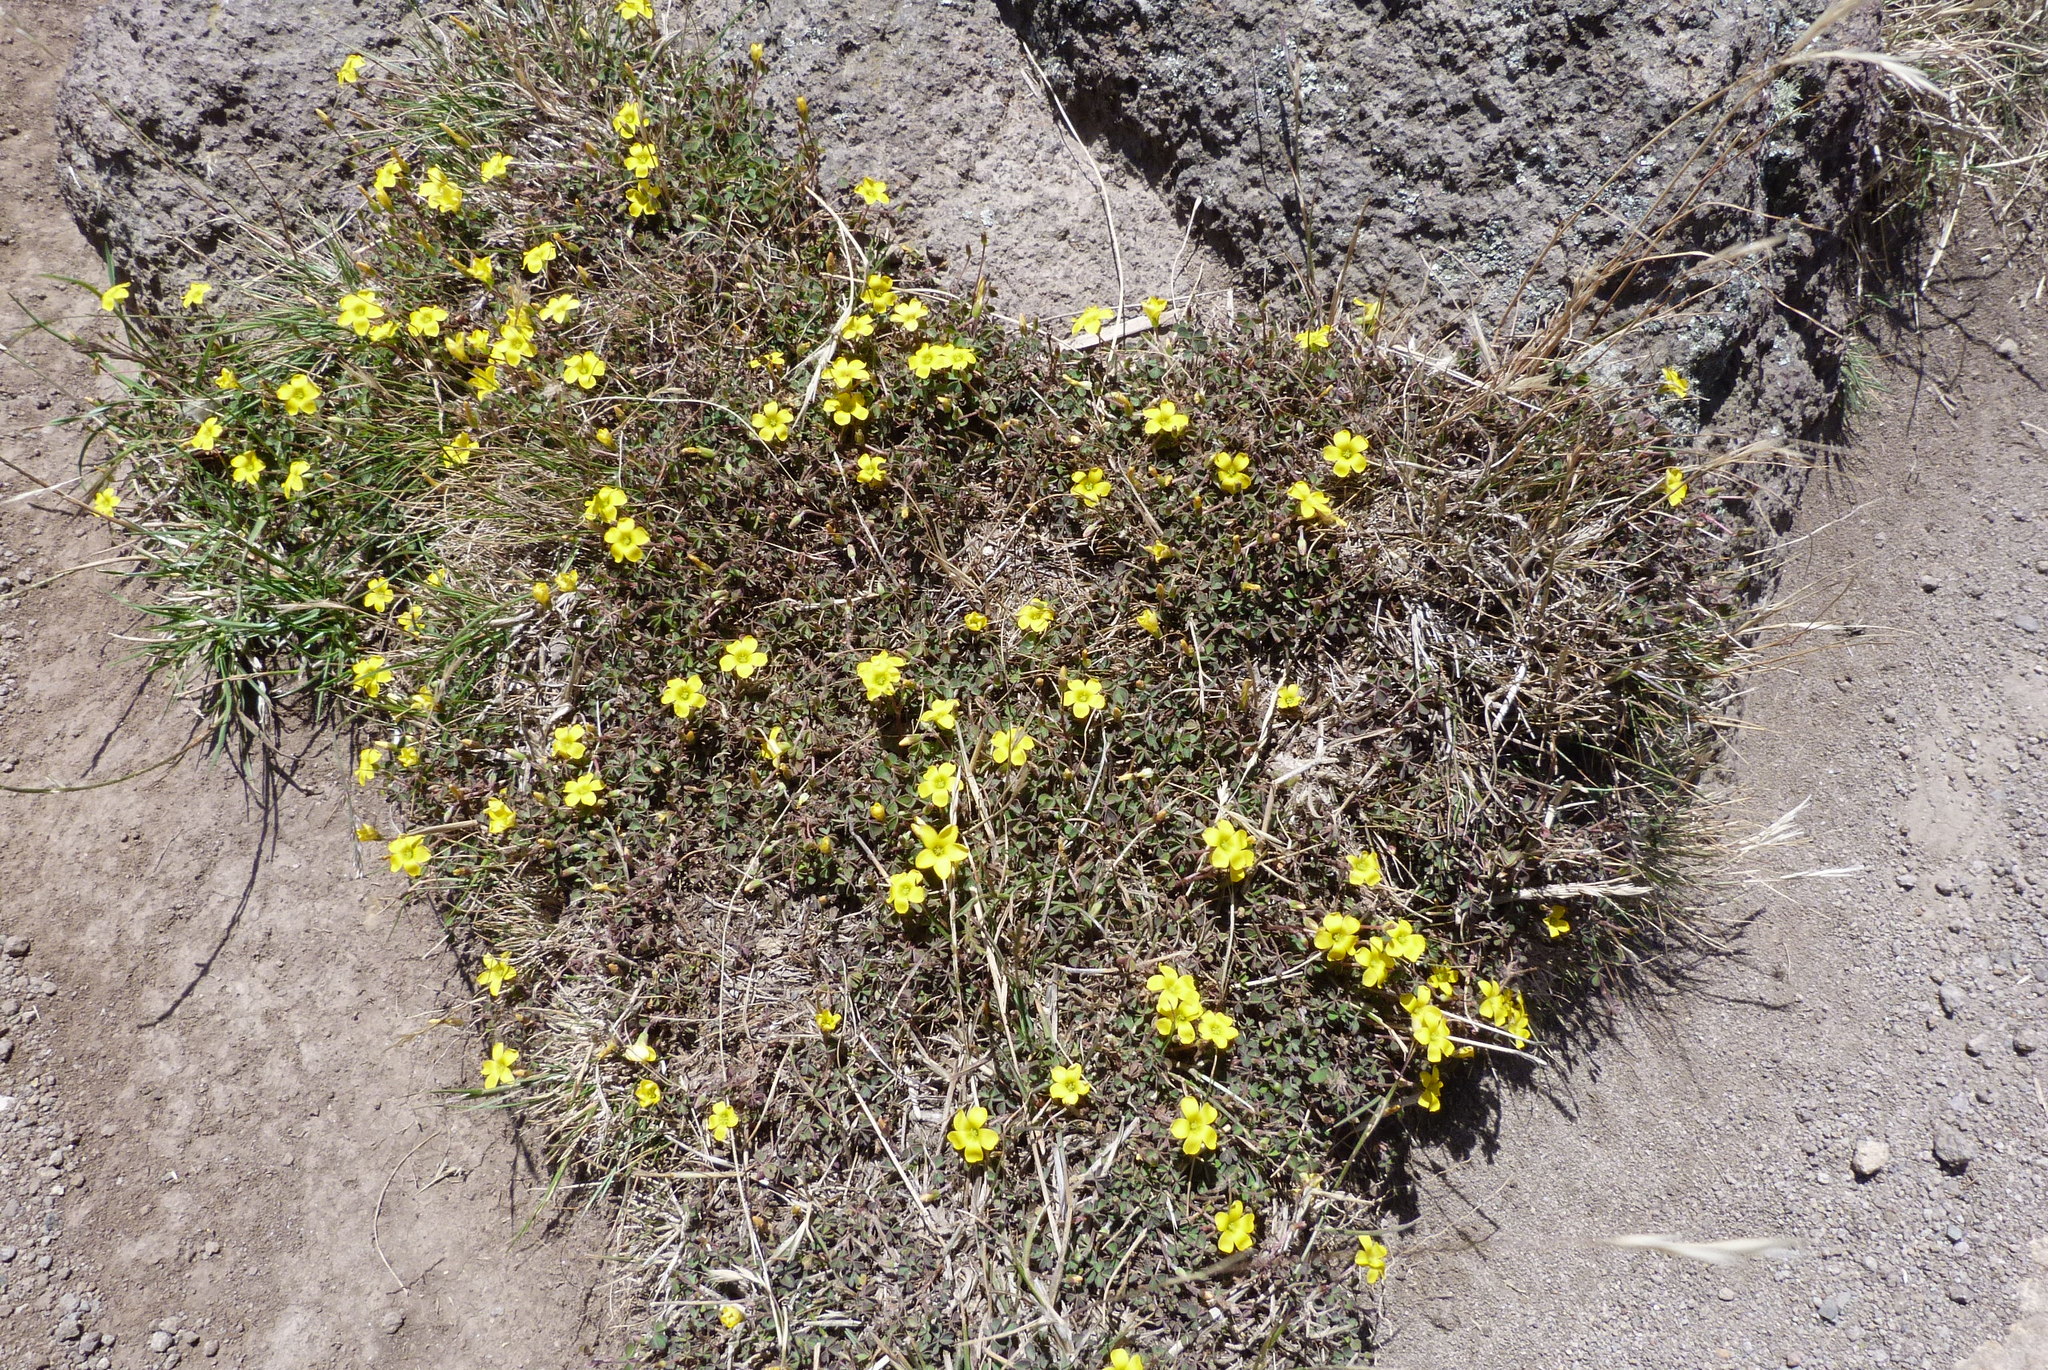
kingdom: Plantae
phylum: Tracheophyta
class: Magnoliopsida
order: Oxalidales
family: Oxalidaceae
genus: Oxalis
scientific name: Oxalis exilis
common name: Least yellow-sorrel
